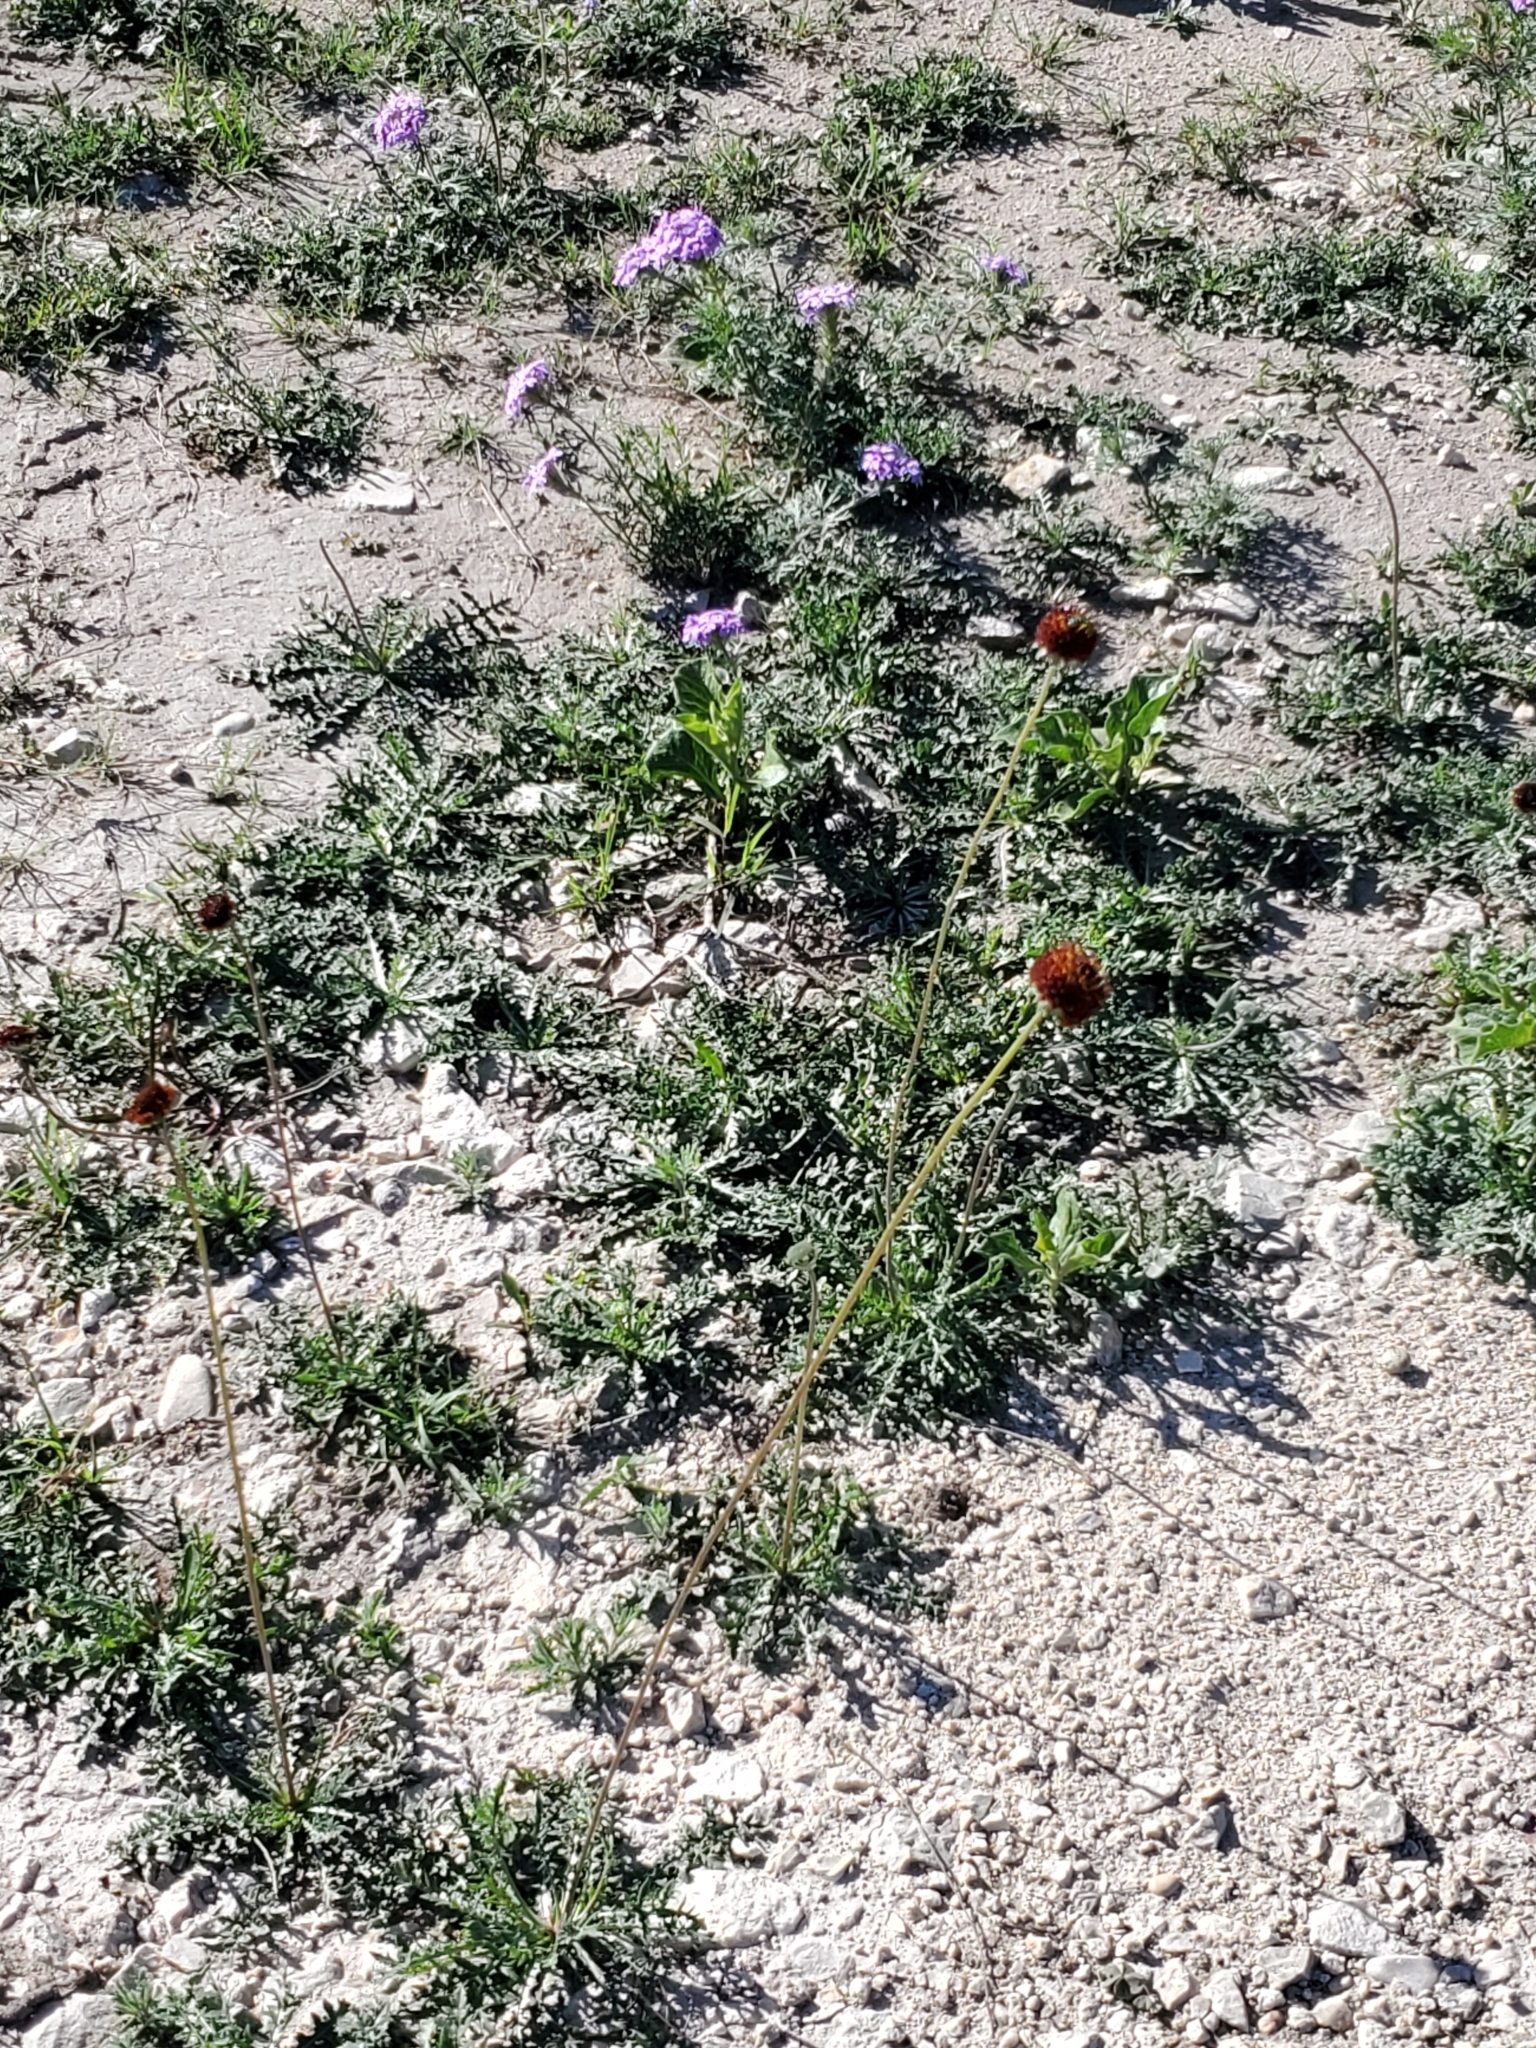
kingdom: Plantae
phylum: Tracheophyta
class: Magnoliopsida
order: Asterales
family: Asteraceae
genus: Gaillardia
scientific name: Gaillardia suavis
